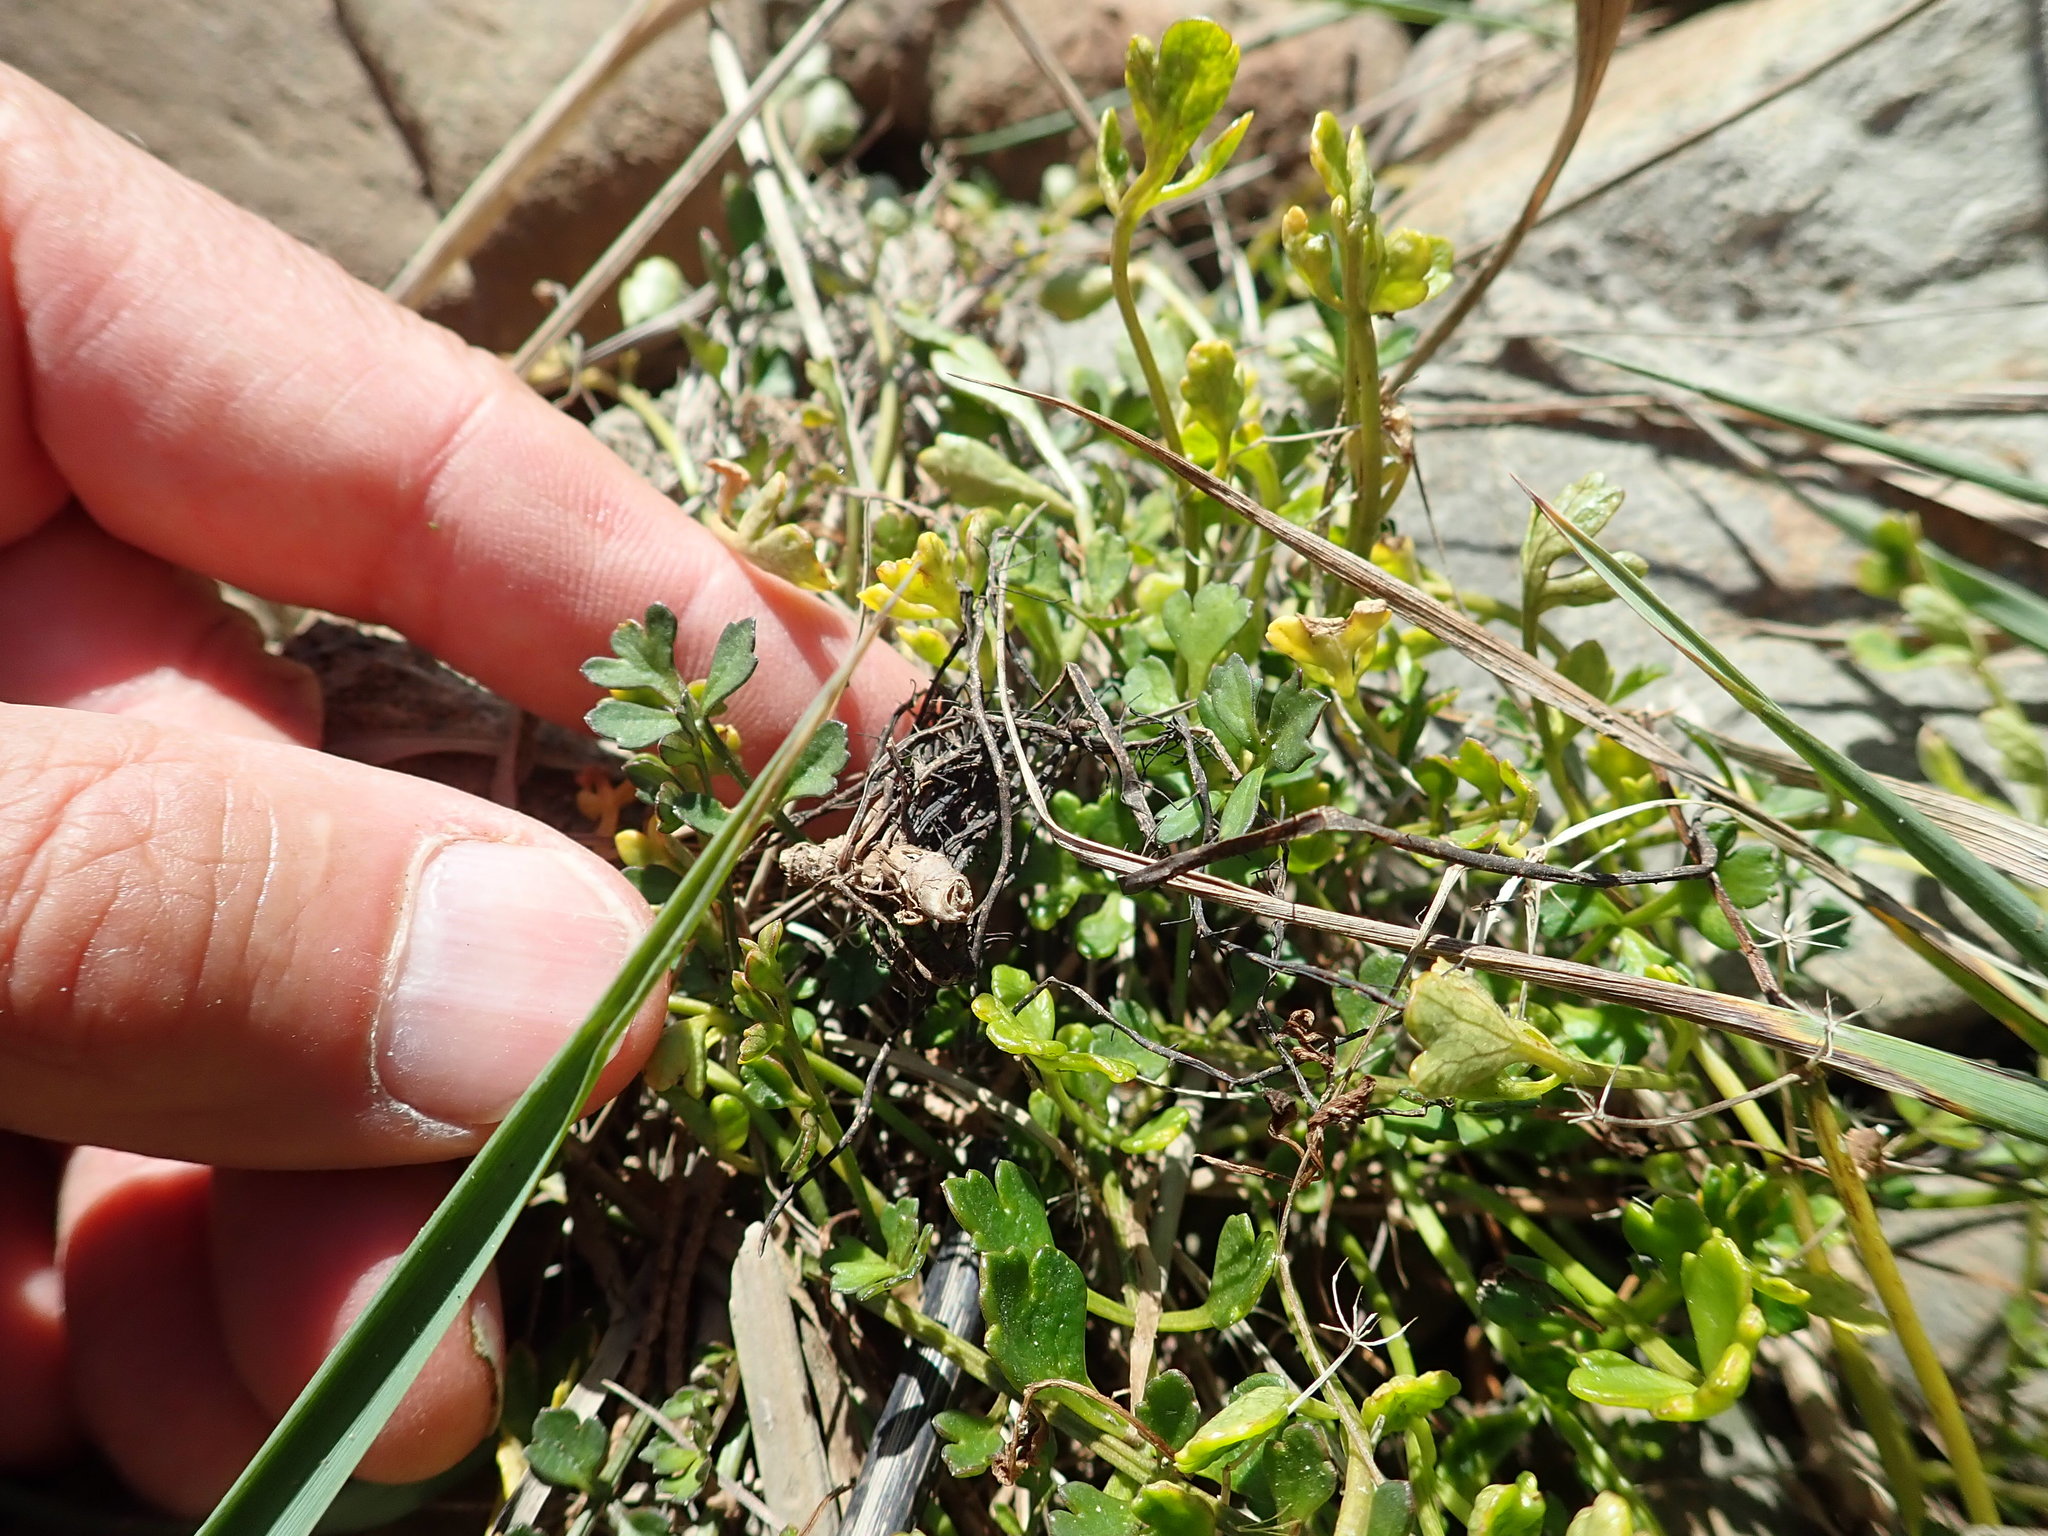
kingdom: Plantae
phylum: Tracheophyta
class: Magnoliopsida
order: Apiales
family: Apiaceae
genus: Apium
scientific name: Apium prostratum
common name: Prostrate marshwort
